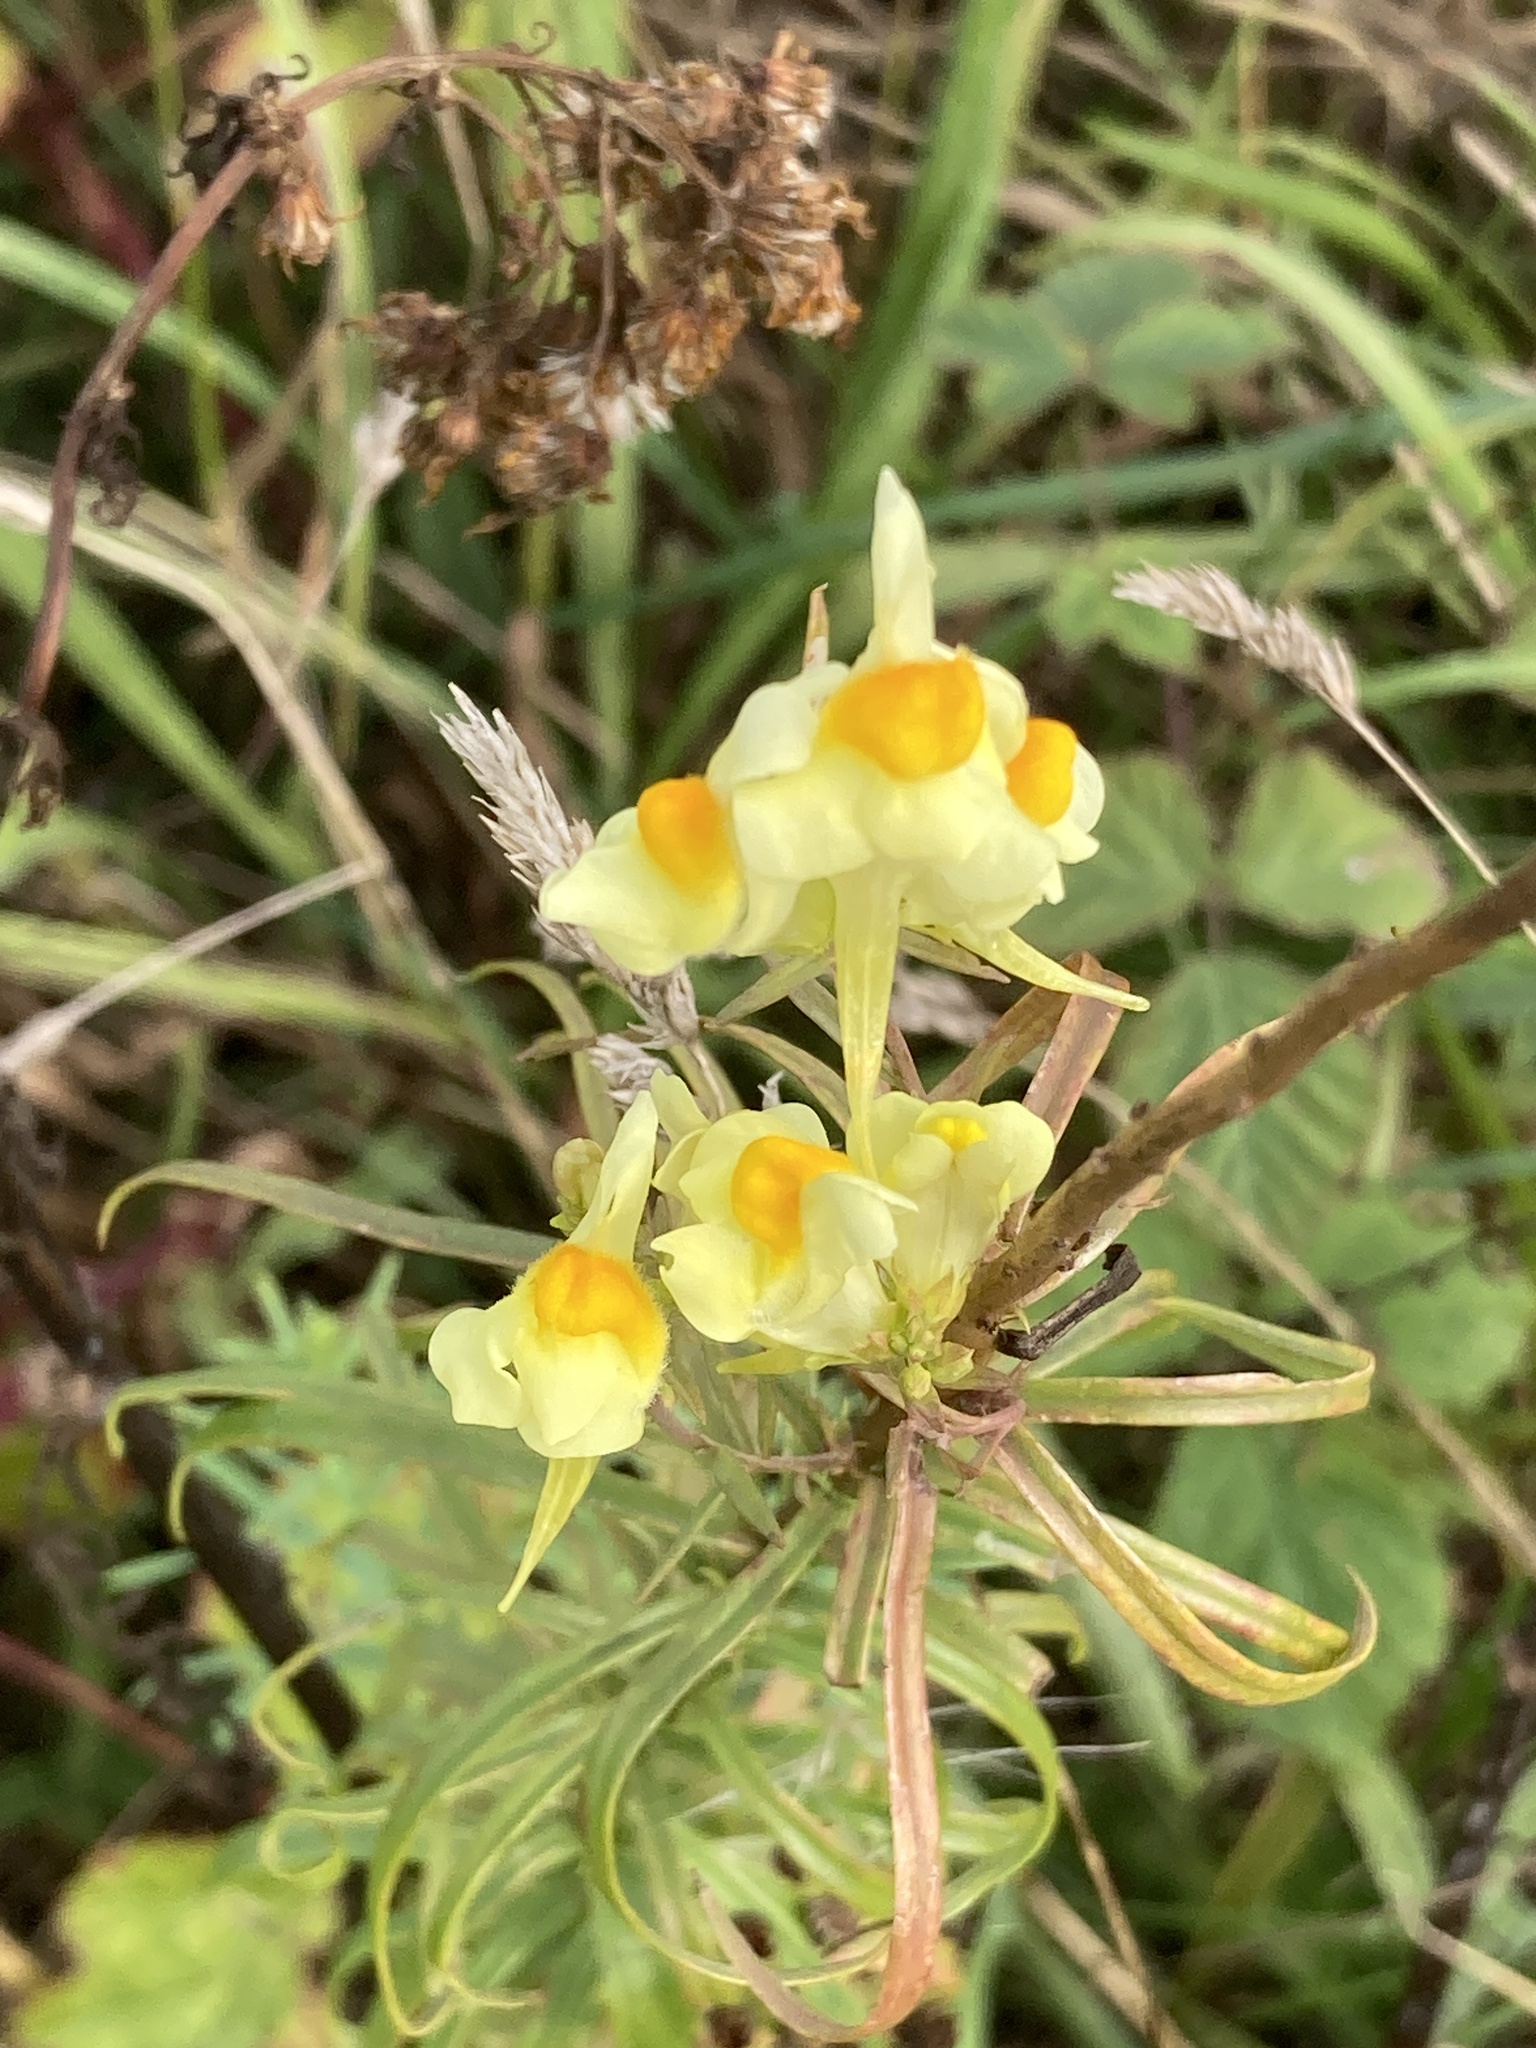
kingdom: Plantae
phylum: Tracheophyta
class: Magnoliopsida
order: Lamiales
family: Plantaginaceae
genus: Linaria
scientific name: Linaria vulgaris
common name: Butter and eggs
